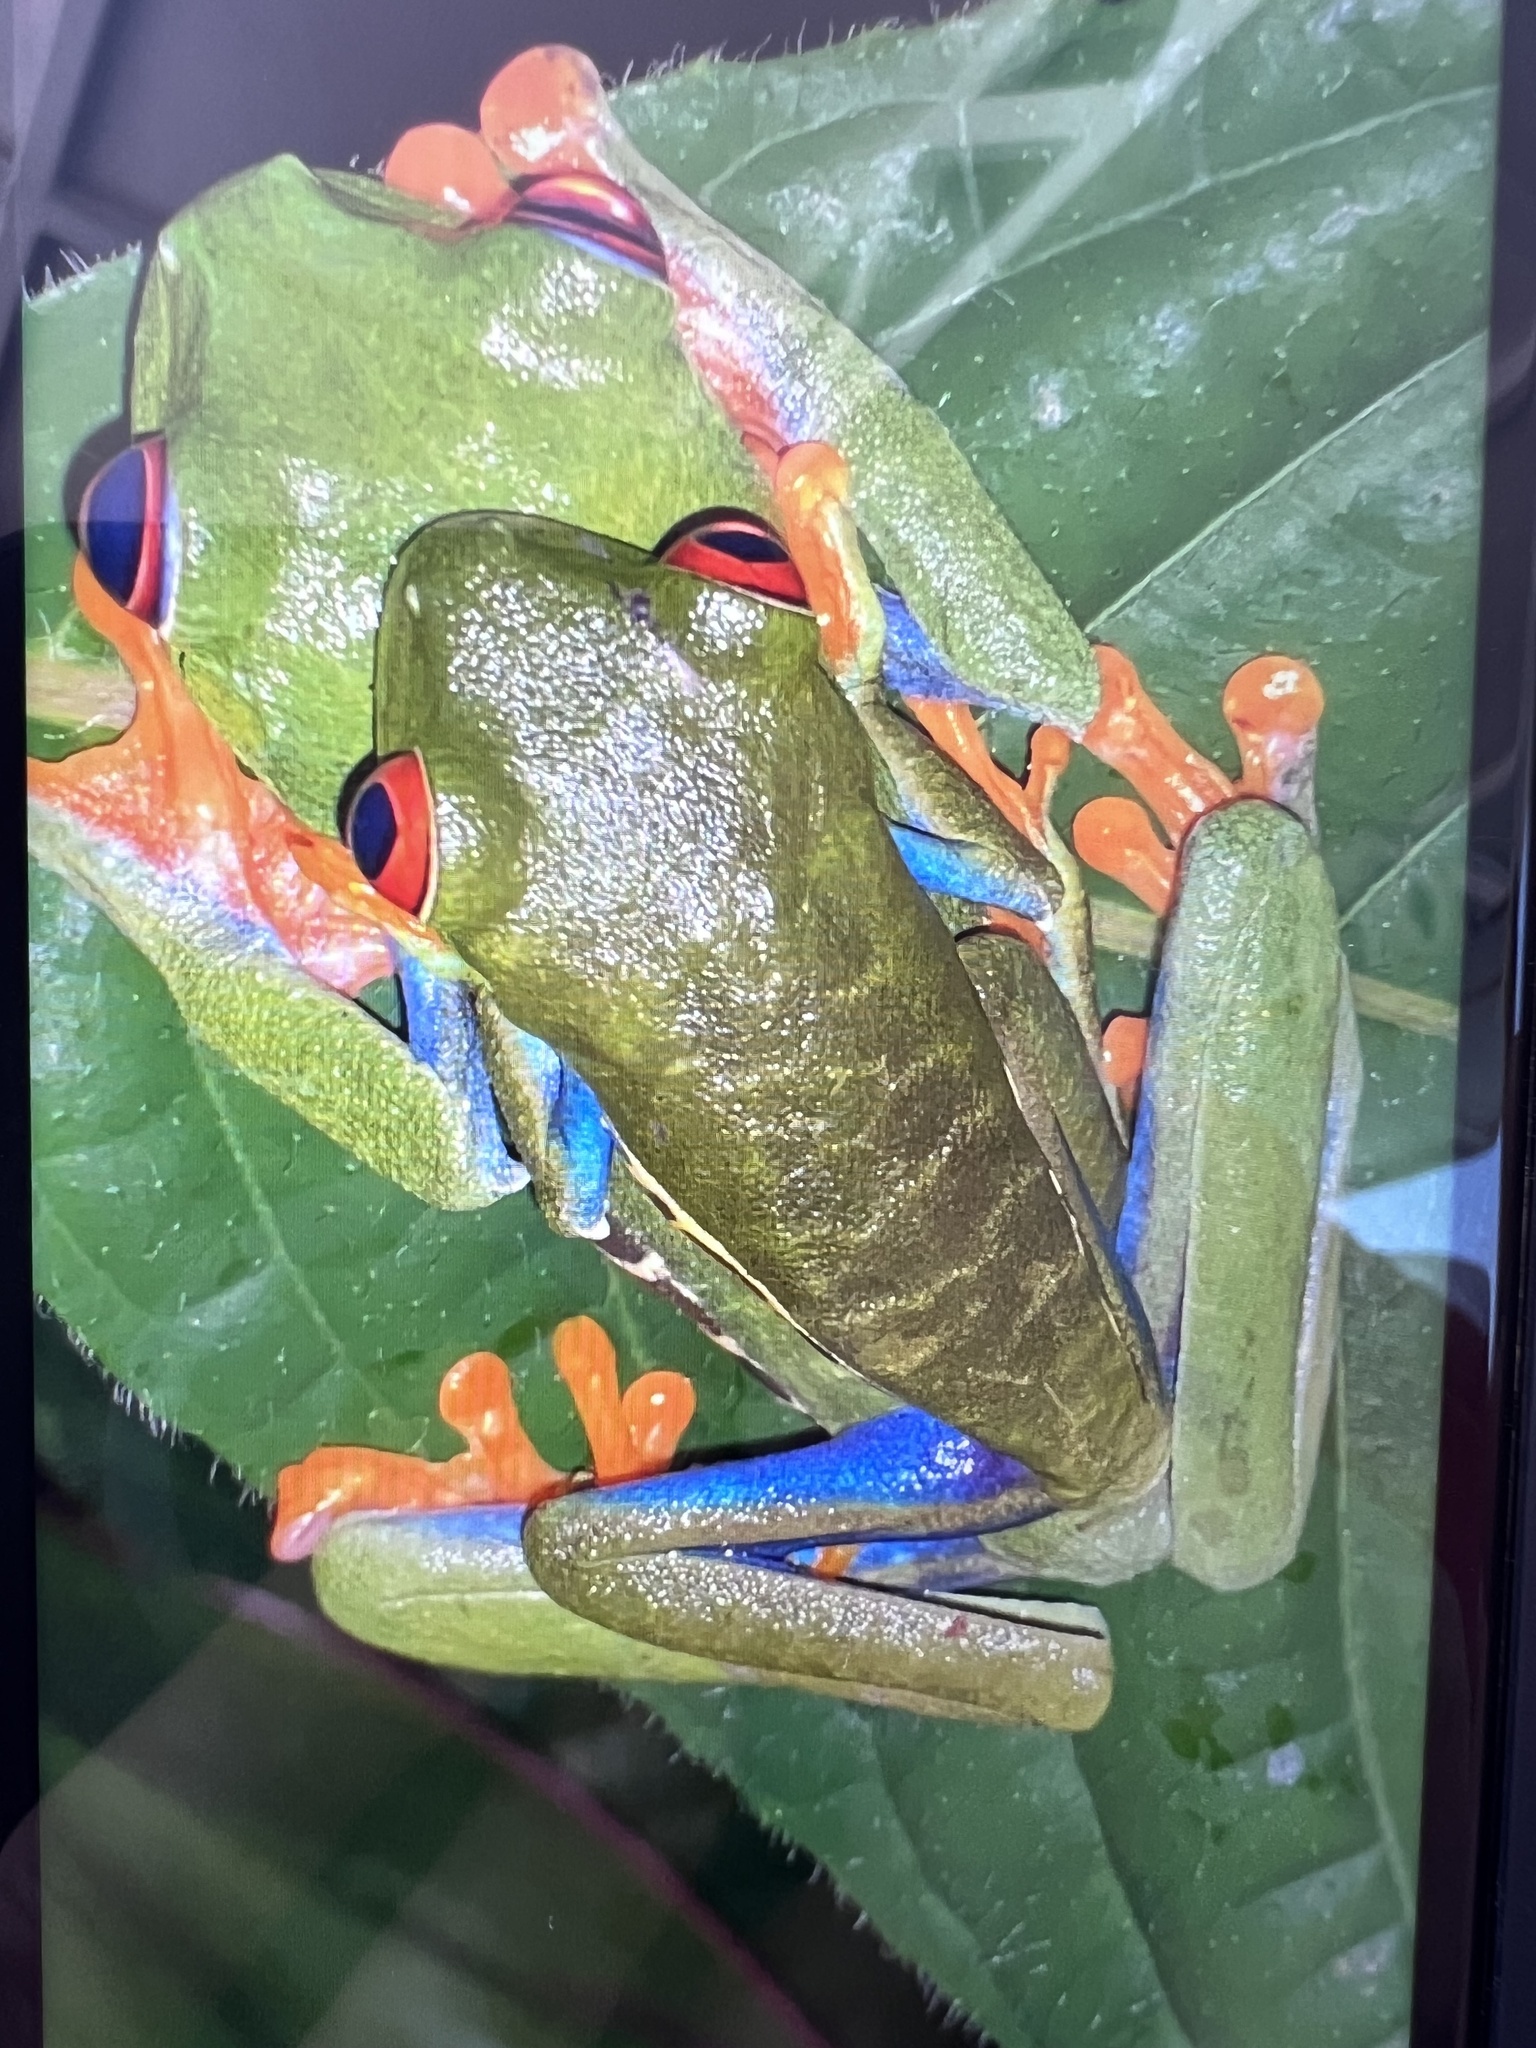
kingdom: Animalia
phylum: Chordata
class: Amphibia
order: Anura
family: Phyllomedusidae
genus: Agalychnis
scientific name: Agalychnis callidryas
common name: Red-eyed treefrog
